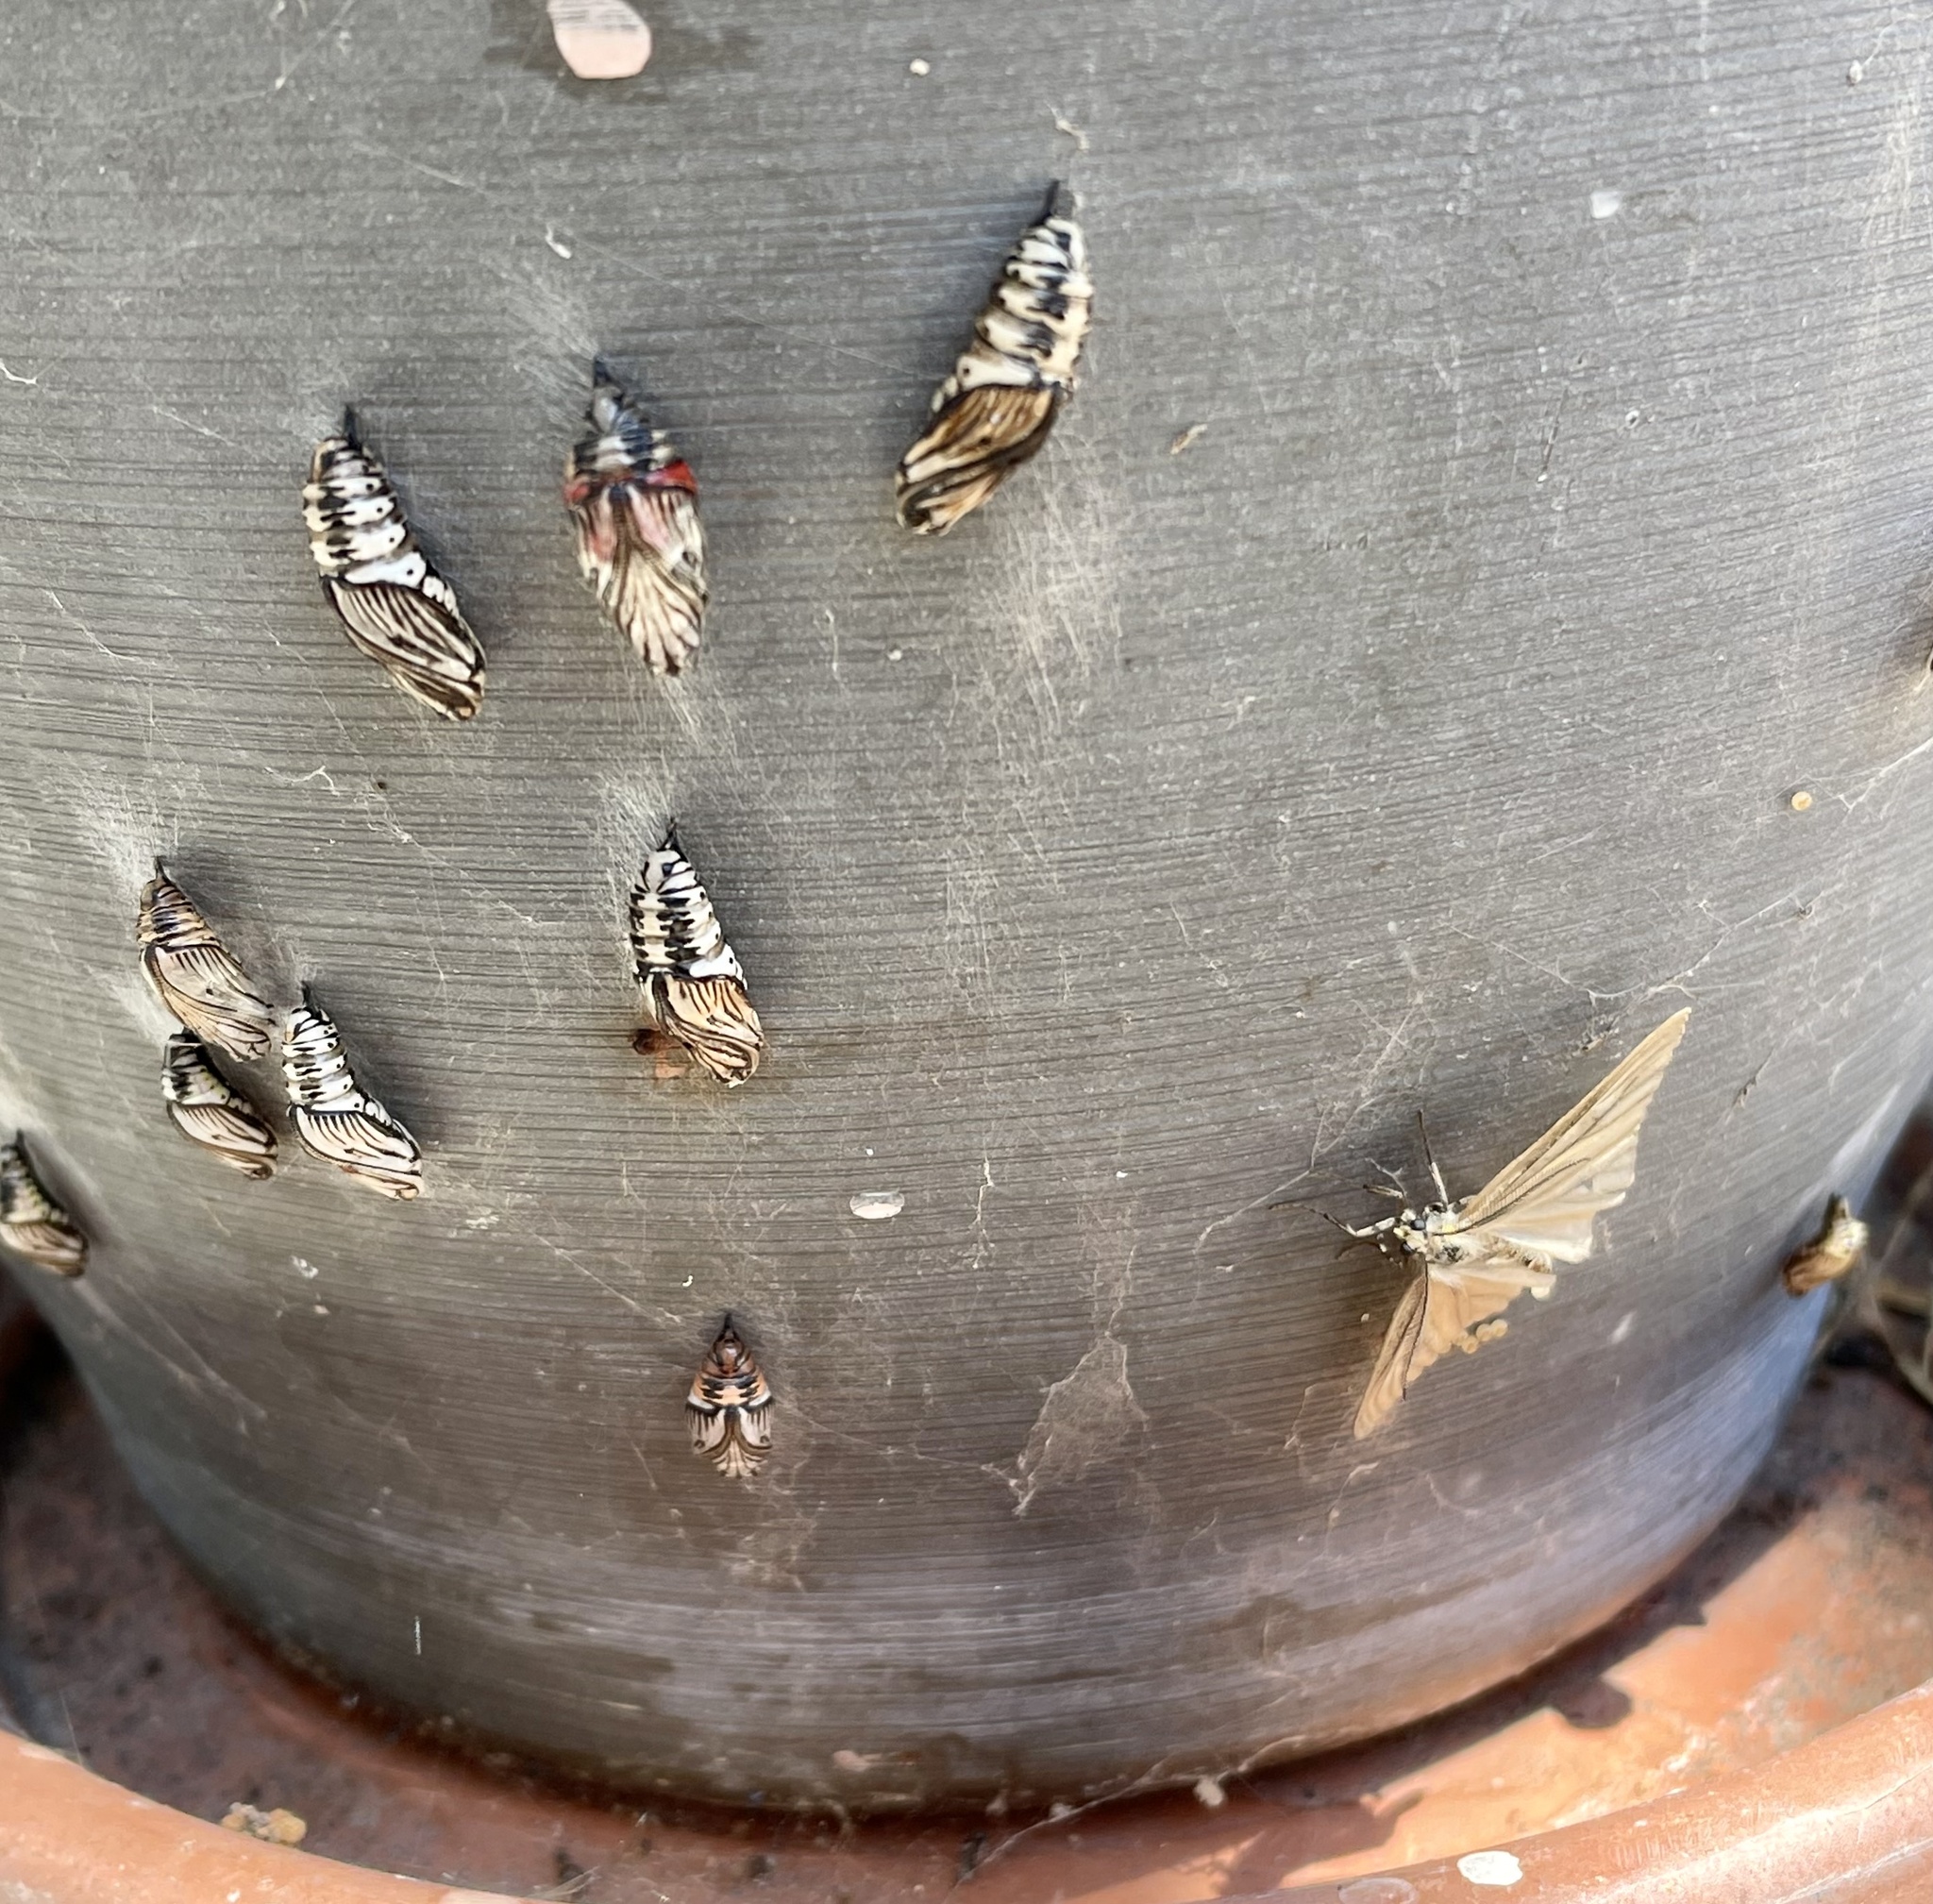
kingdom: Animalia
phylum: Arthropoda
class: Insecta
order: Lepidoptera
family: Notodontidae
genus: Phryganidia
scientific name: Phryganidia californica
